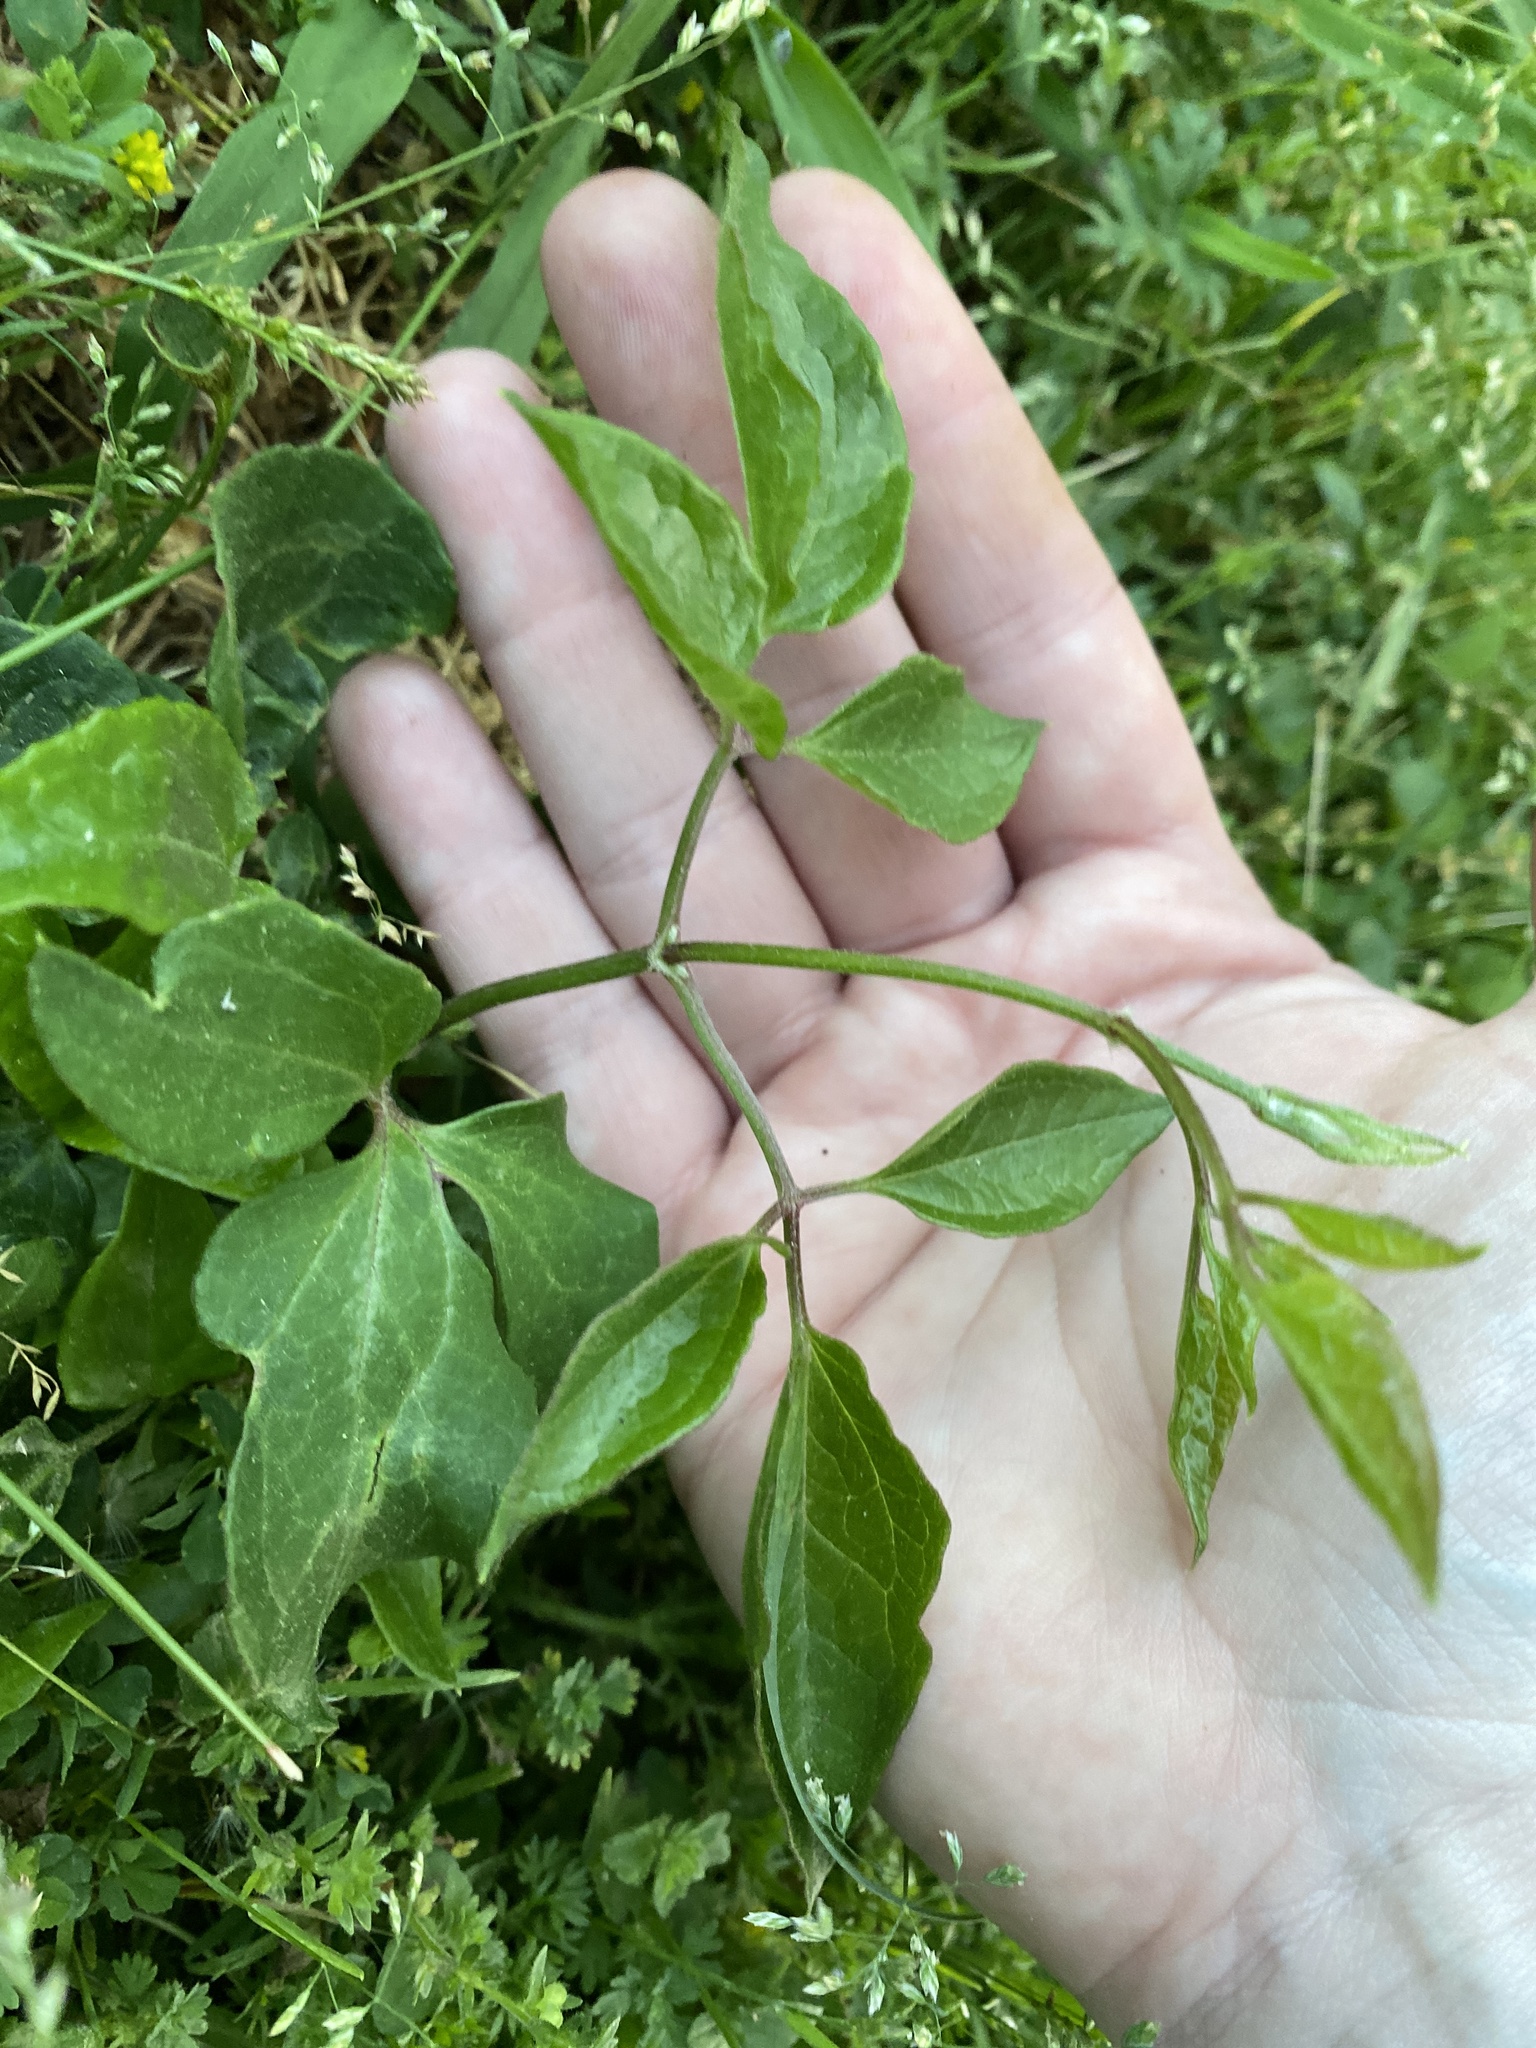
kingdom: Plantae
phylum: Tracheophyta
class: Magnoliopsida
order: Ranunculales
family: Ranunculaceae
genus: Clematis
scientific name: Clematis terniflora
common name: Sweet autumn clematis
